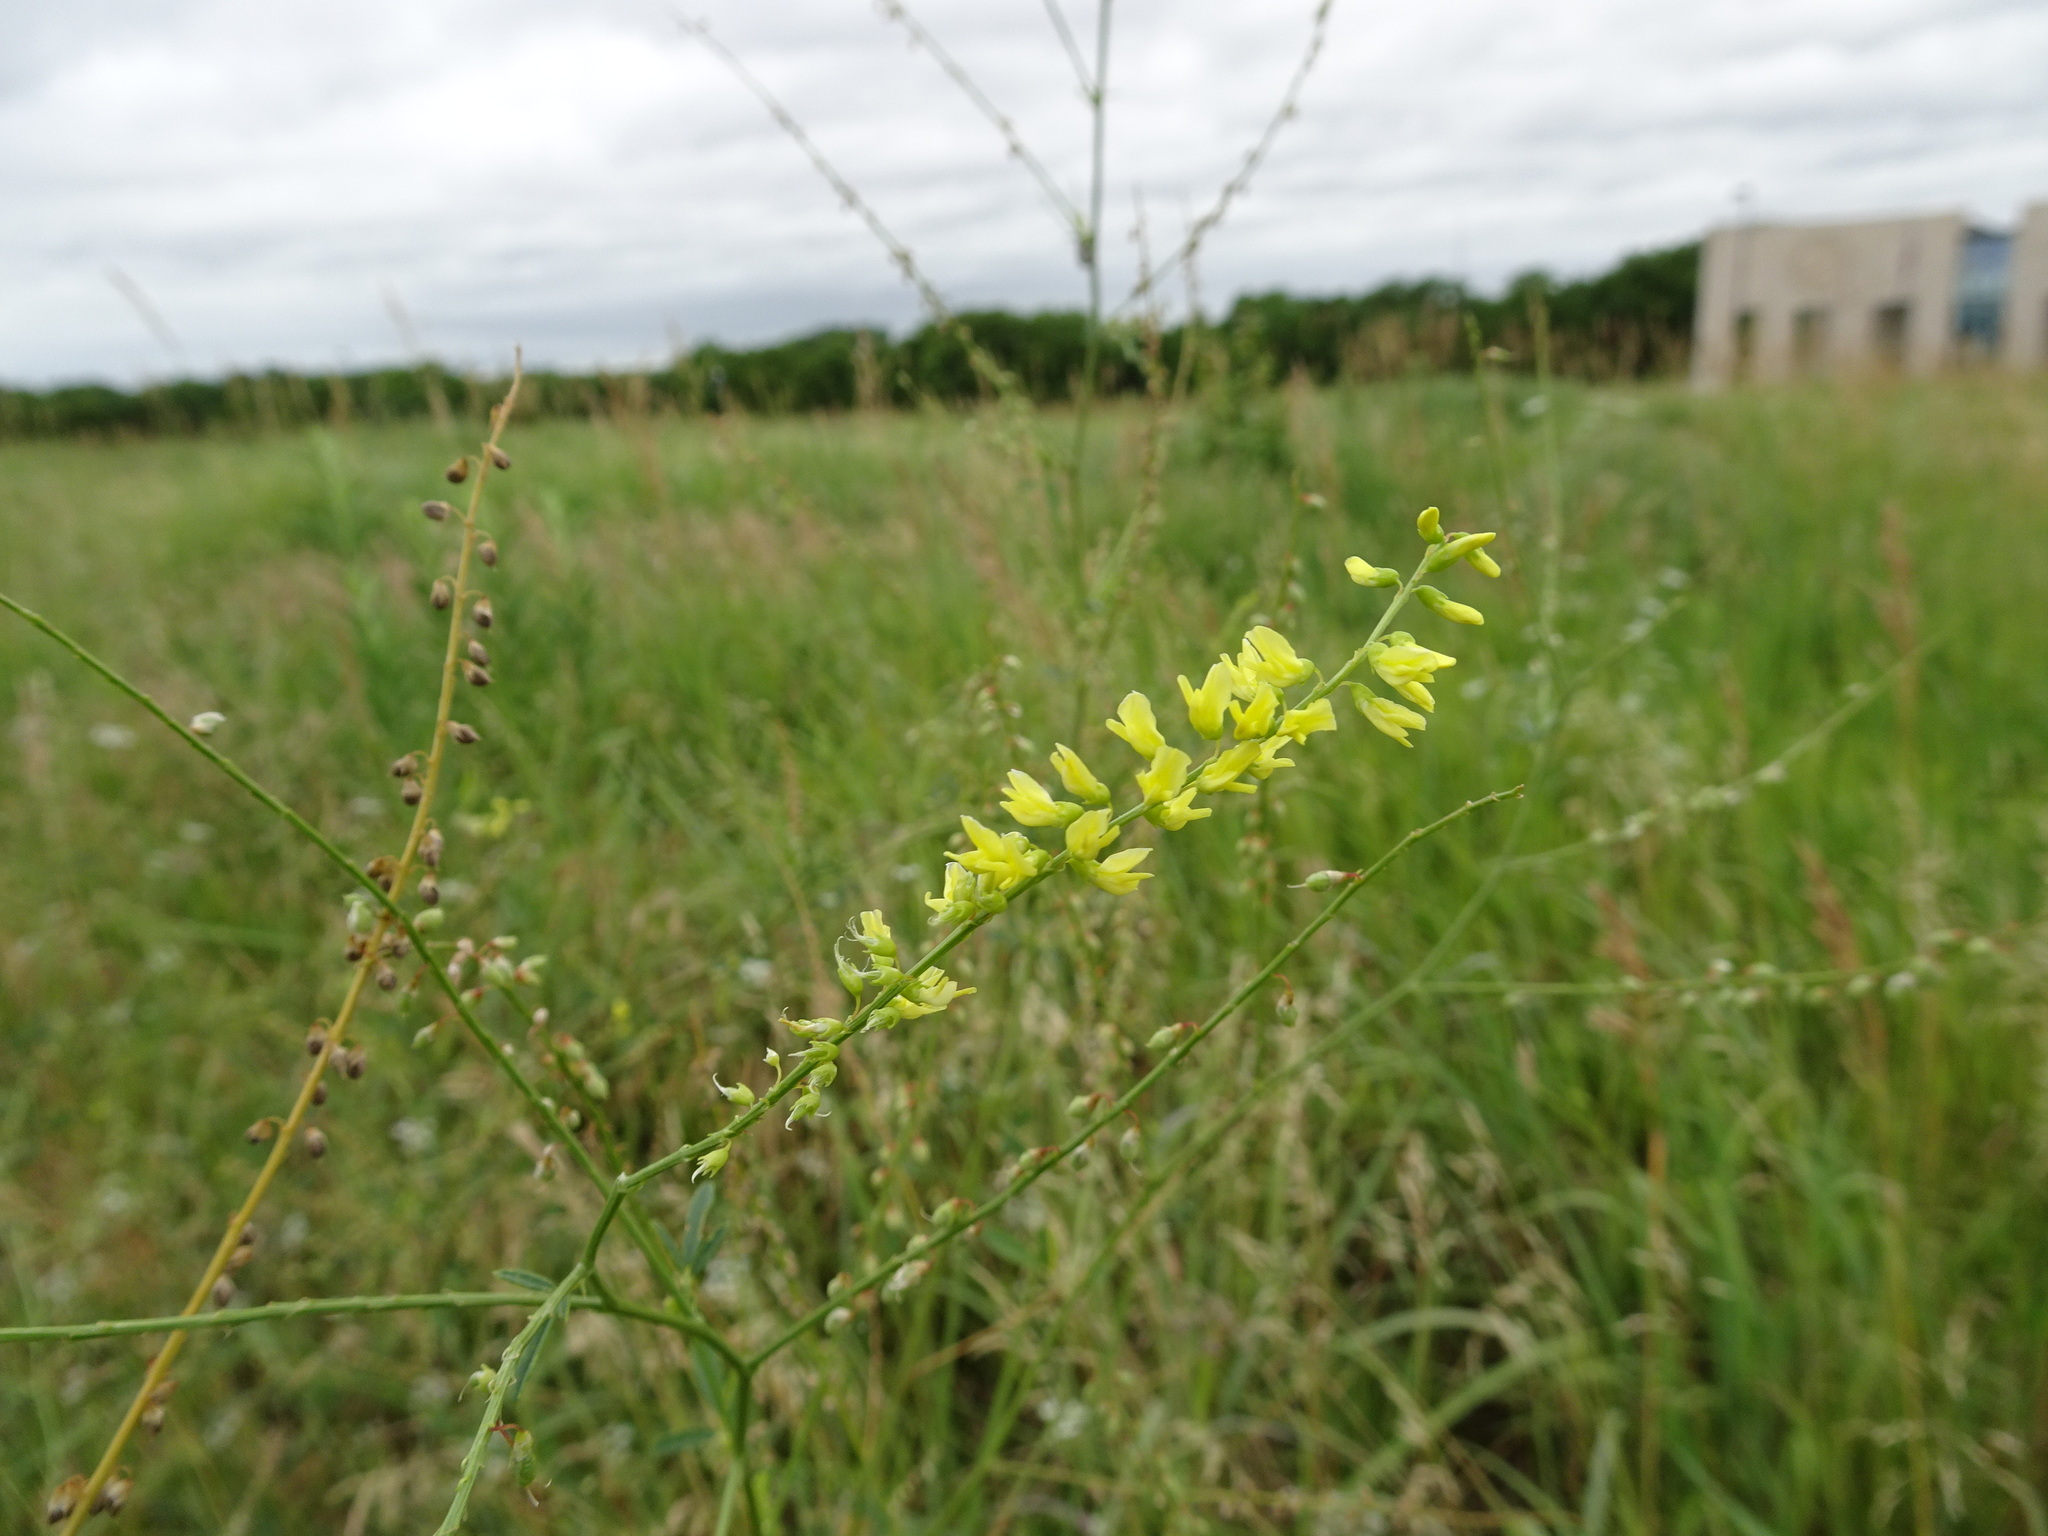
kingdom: Plantae
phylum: Tracheophyta
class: Magnoliopsida
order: Fabales
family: Fabaceae
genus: Melilotus
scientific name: Melilotus officinalis
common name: Sweetclover
